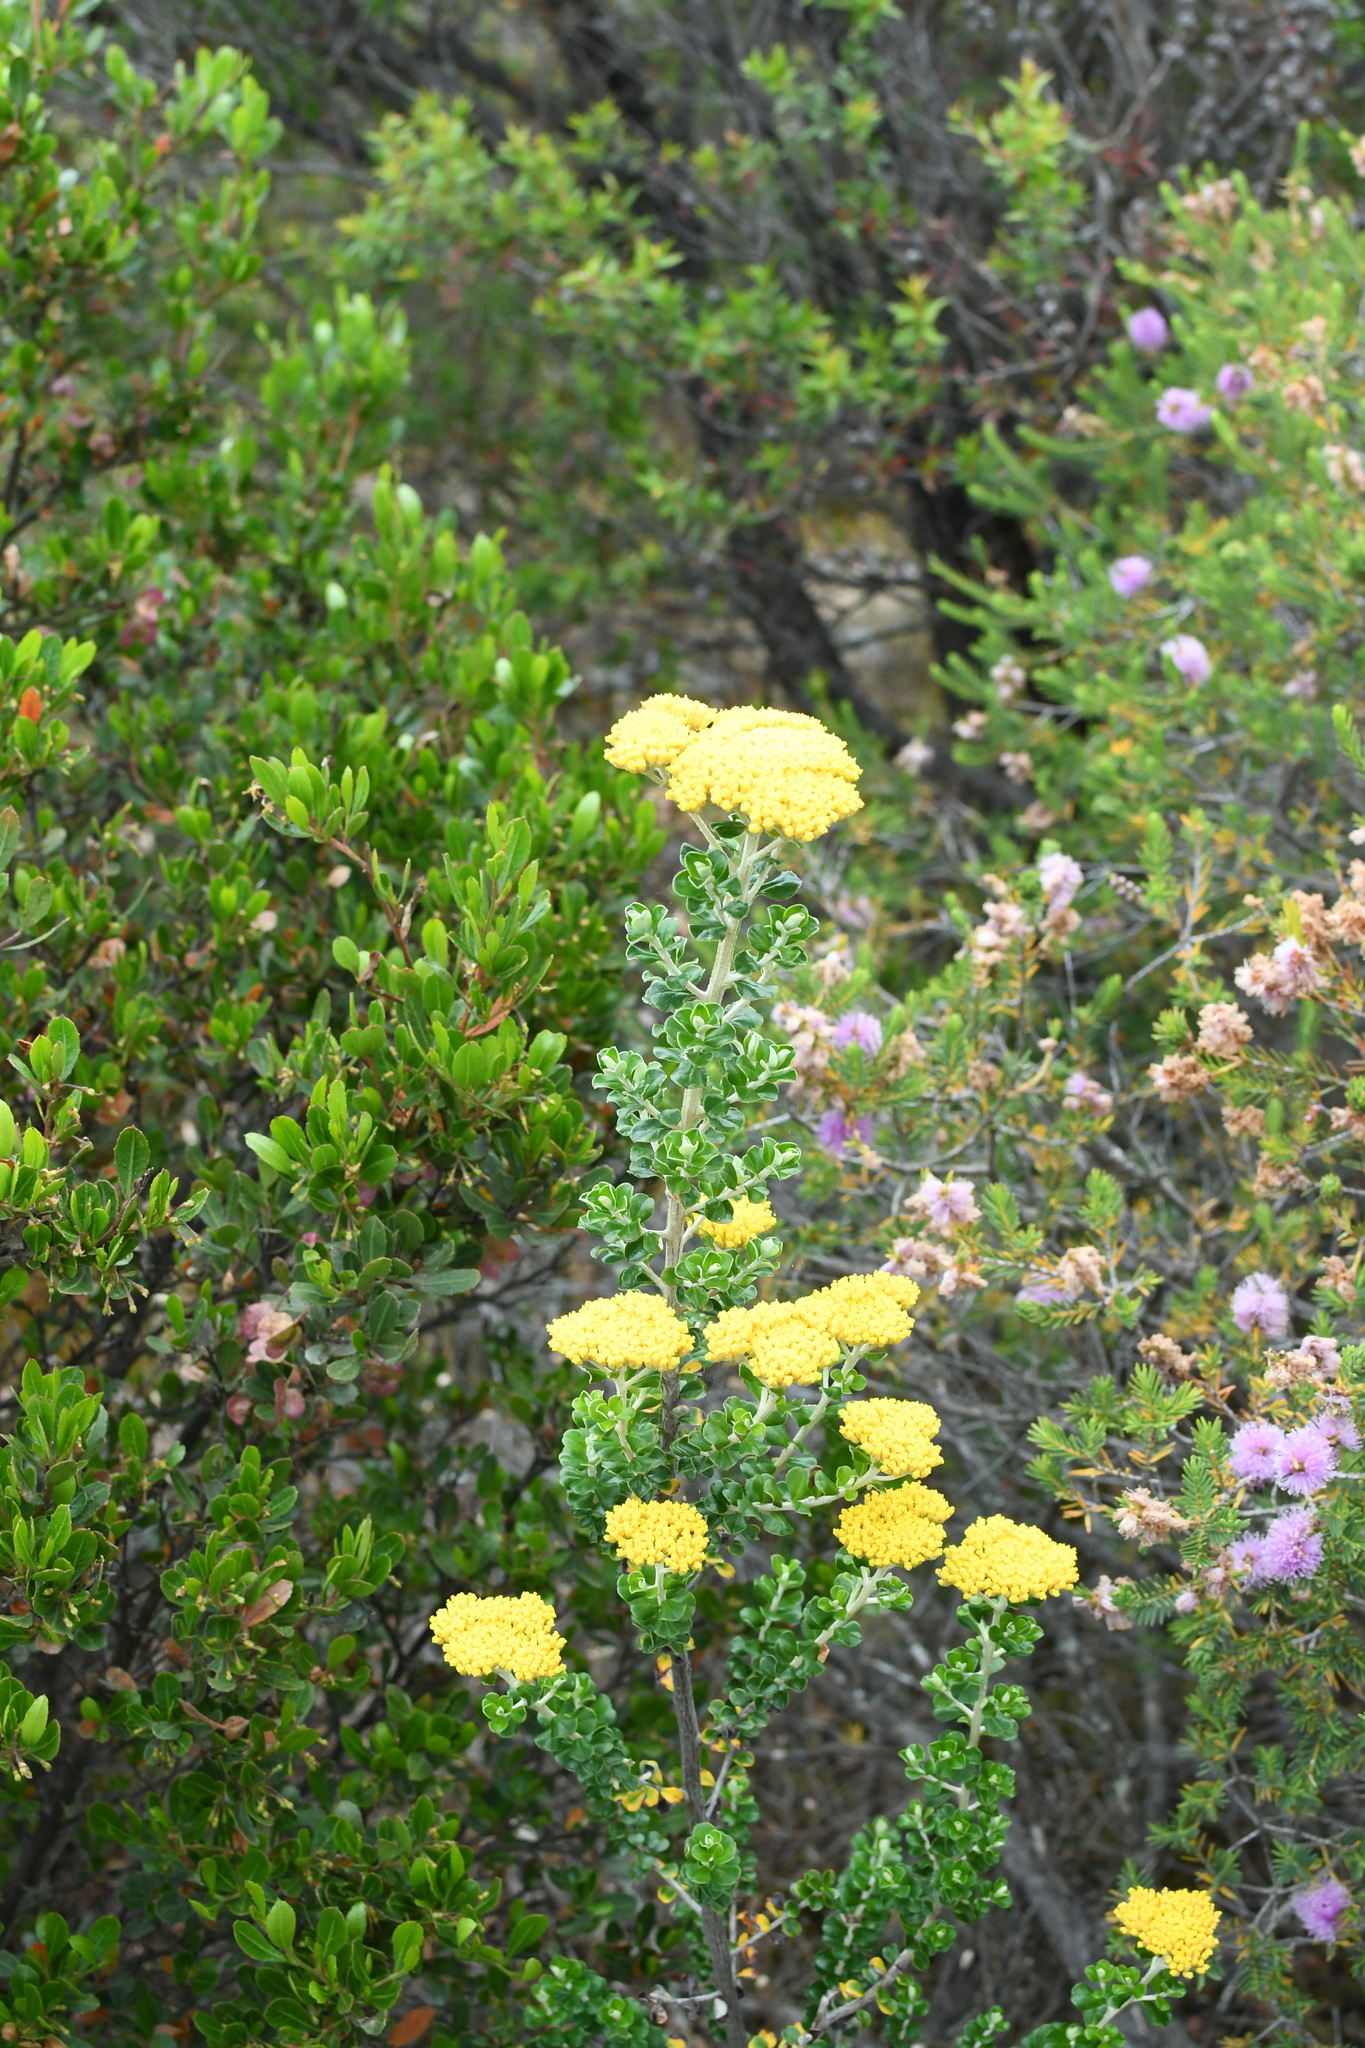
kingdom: Plantae
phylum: Tracheophyta
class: Magnoliopsida
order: Asterales
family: Asteraceae
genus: Ozothamnus
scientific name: Ozothamnus obcordatus
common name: Grey everlasting
